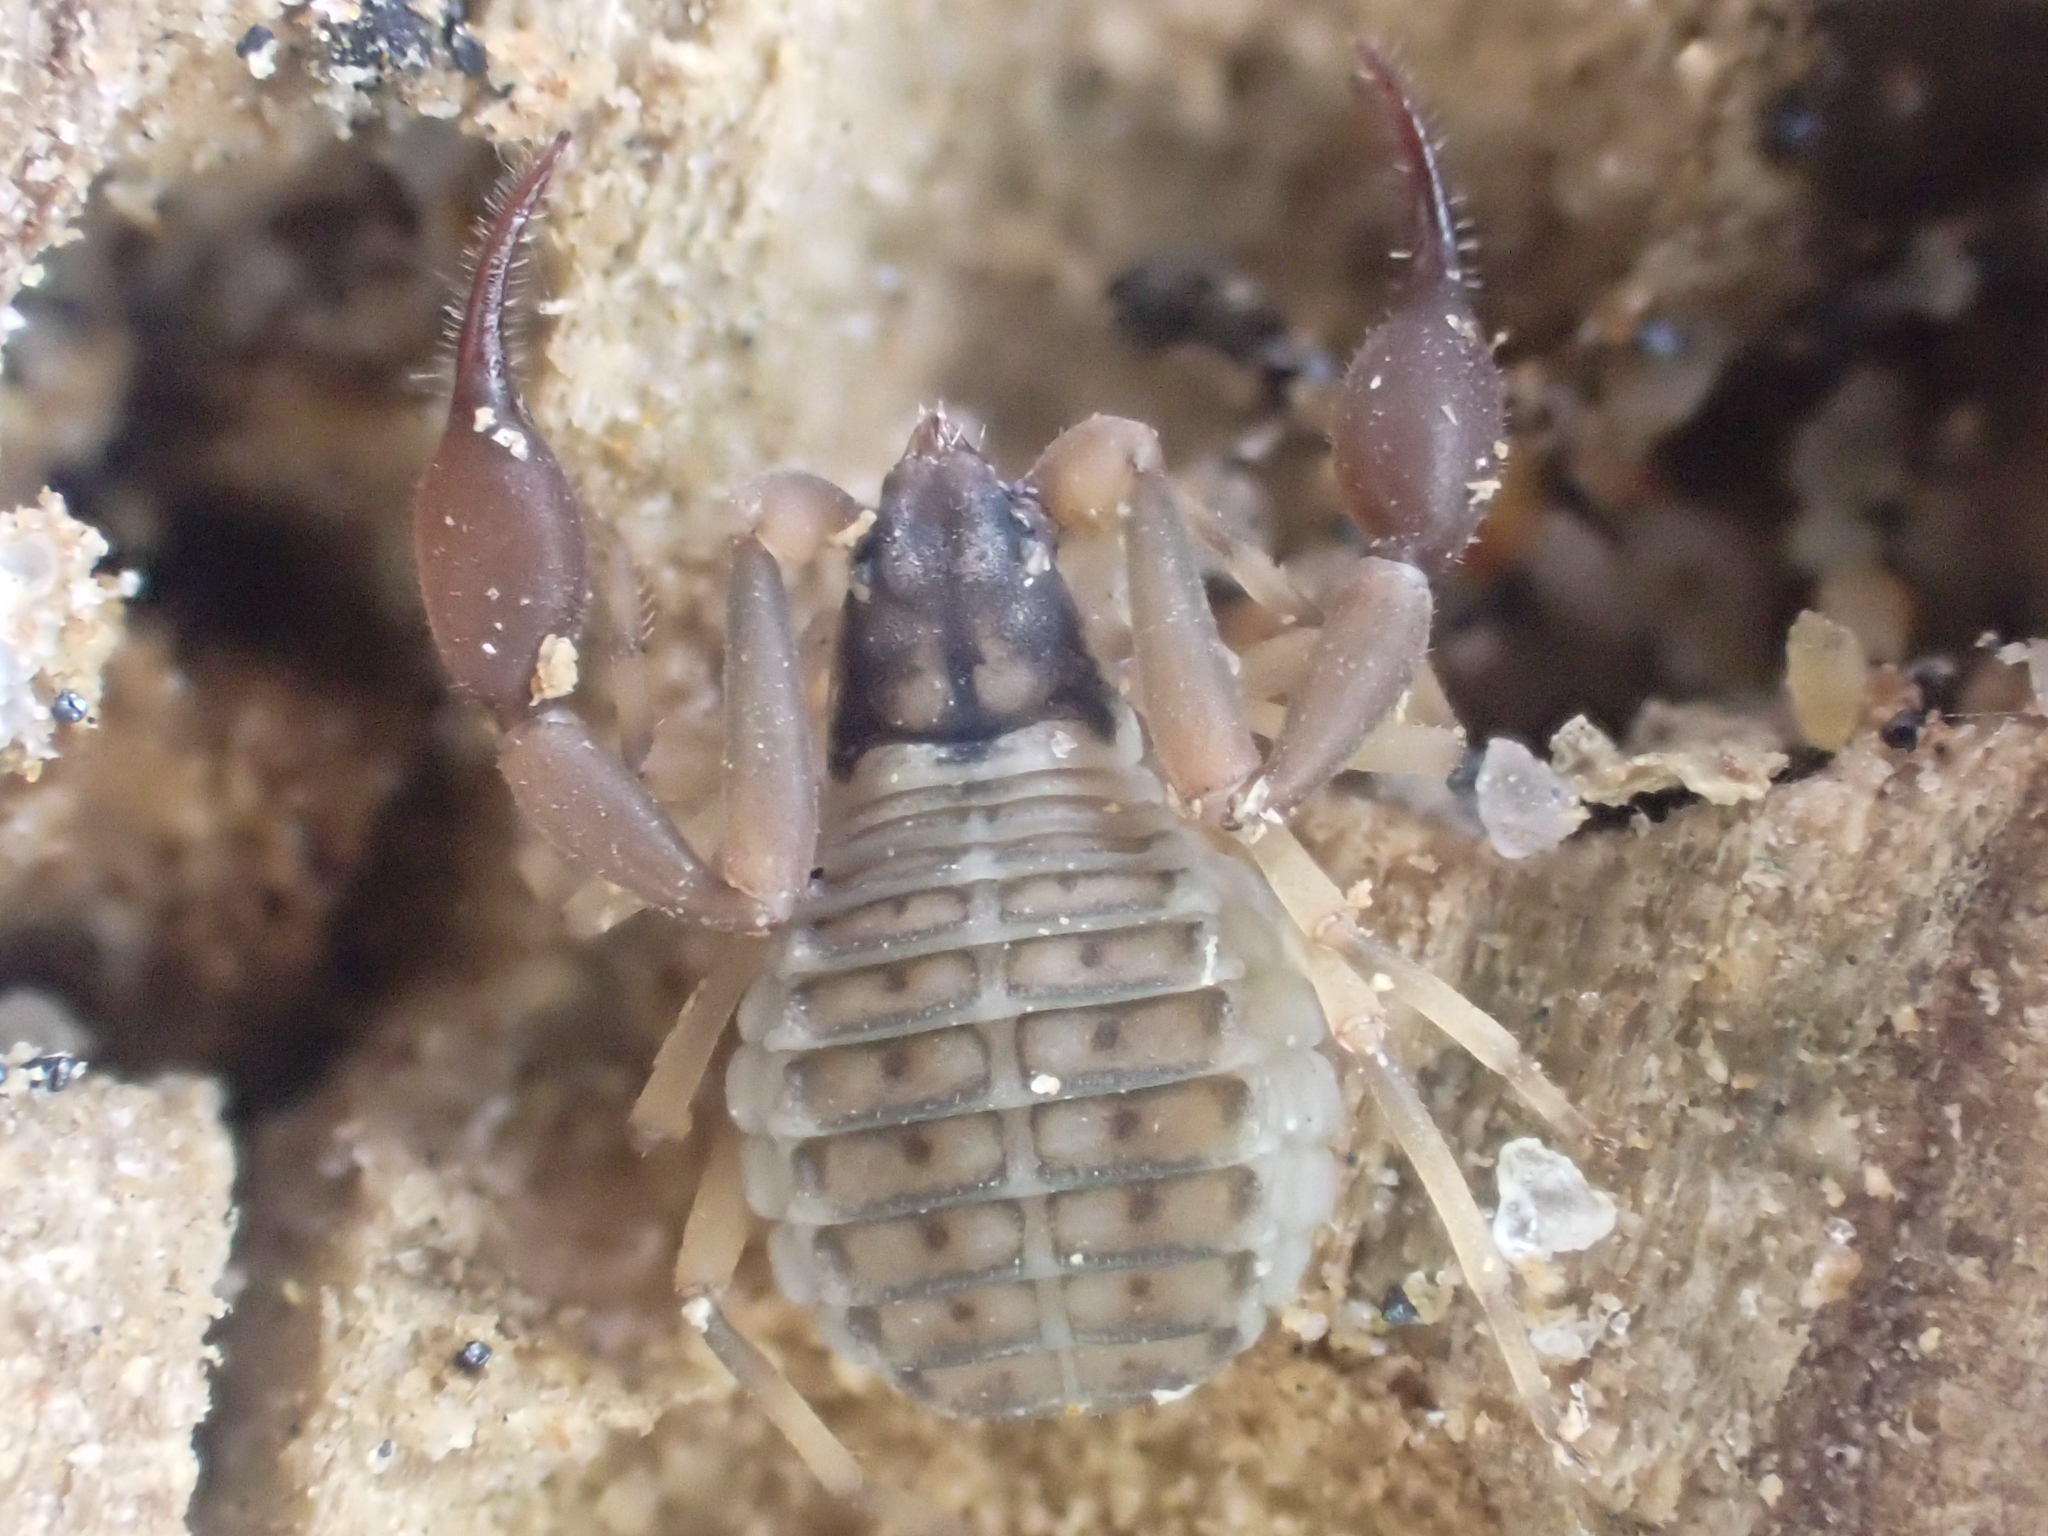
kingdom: Animalia
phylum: Arthropoda
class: Arachnida
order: Pseudoscorpiones
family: Garypidae
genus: Anchigarypus
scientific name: Anchigarypus californicus
